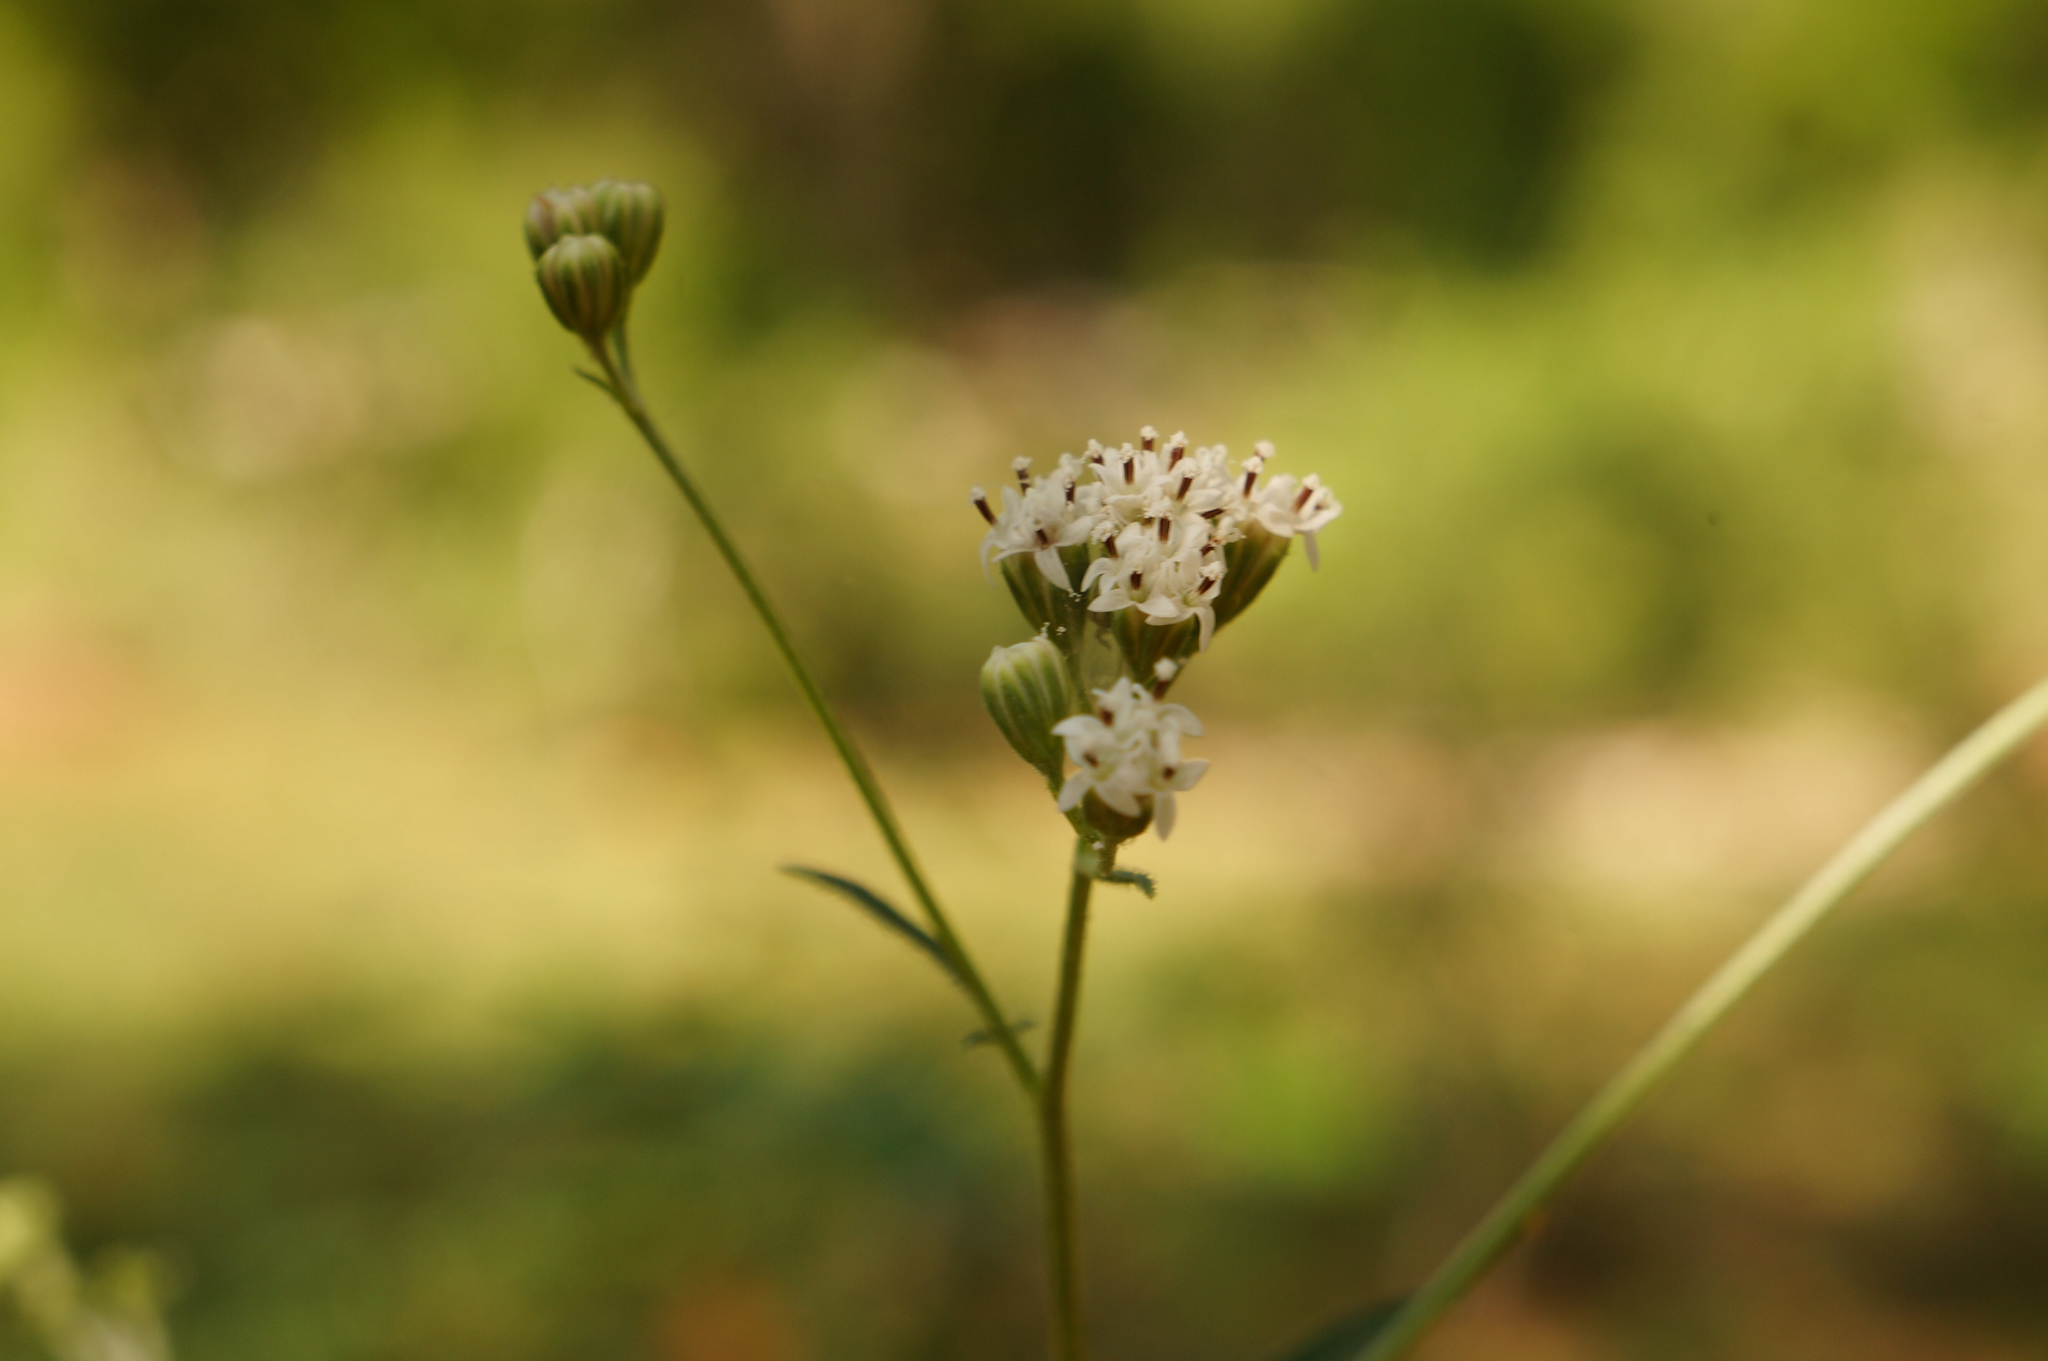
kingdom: Plantae
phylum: Tracheophyta
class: Magnoliopsida
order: Asterales
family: Asteraceae
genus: Florestina
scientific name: Florestina tripteris
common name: Sticky florestina
